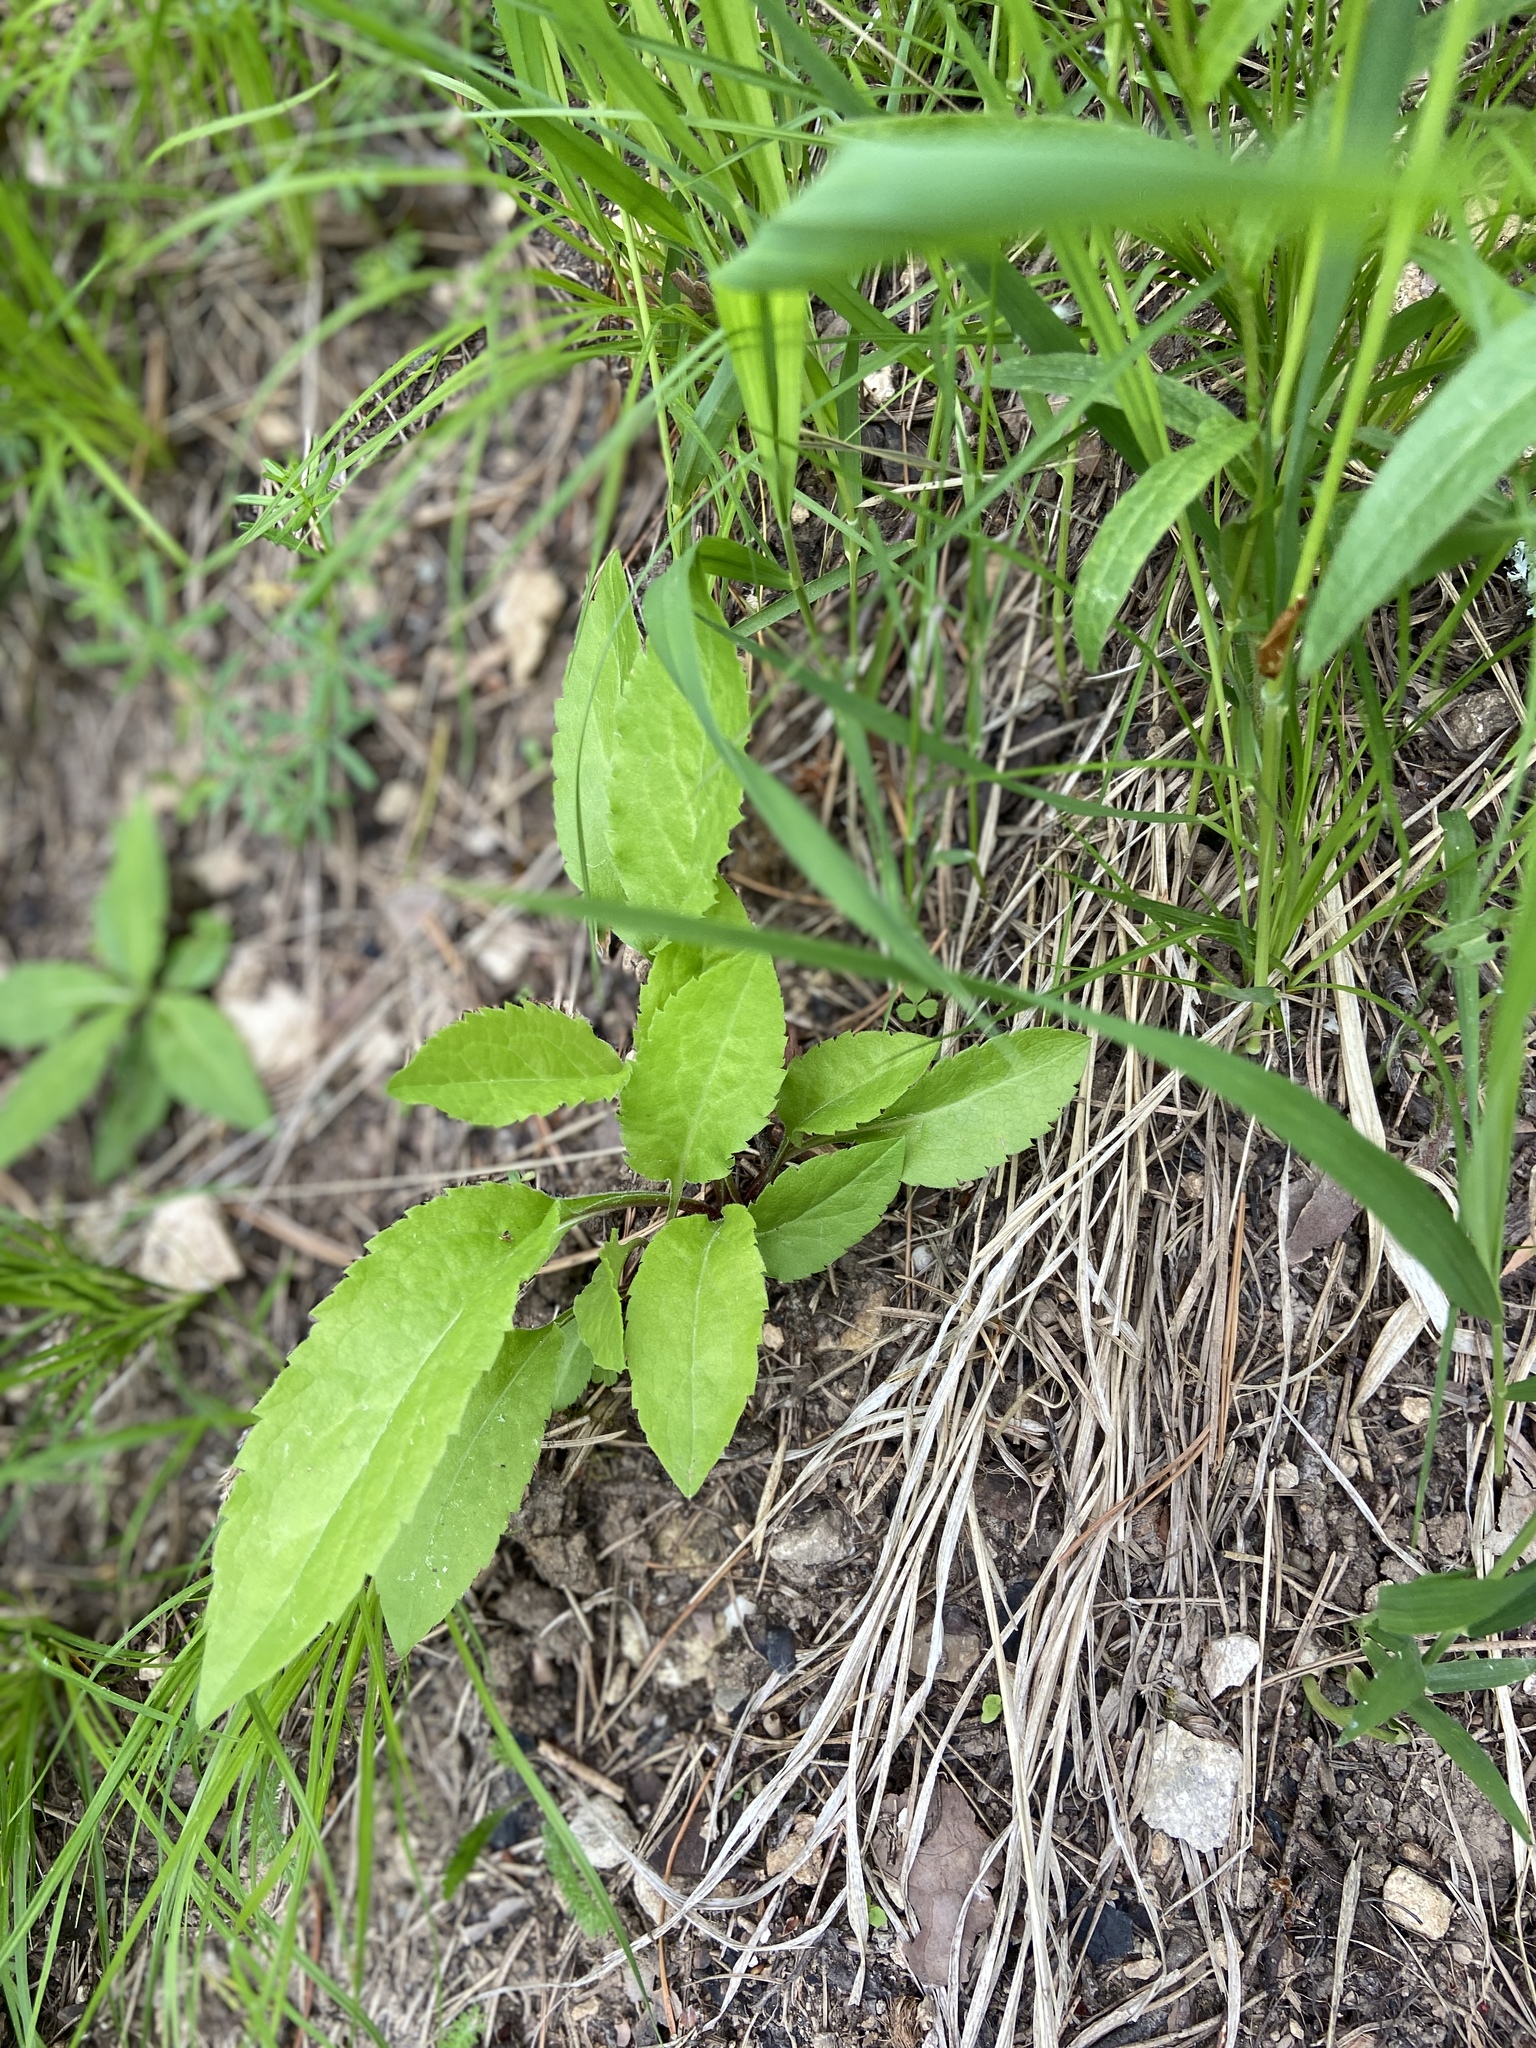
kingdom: Plantae
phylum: Tracheophyta
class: Magnoliopsida
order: Asterales
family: Asteraceae
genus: Solidago
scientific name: Solidago virgaurea
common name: Goldenrod
